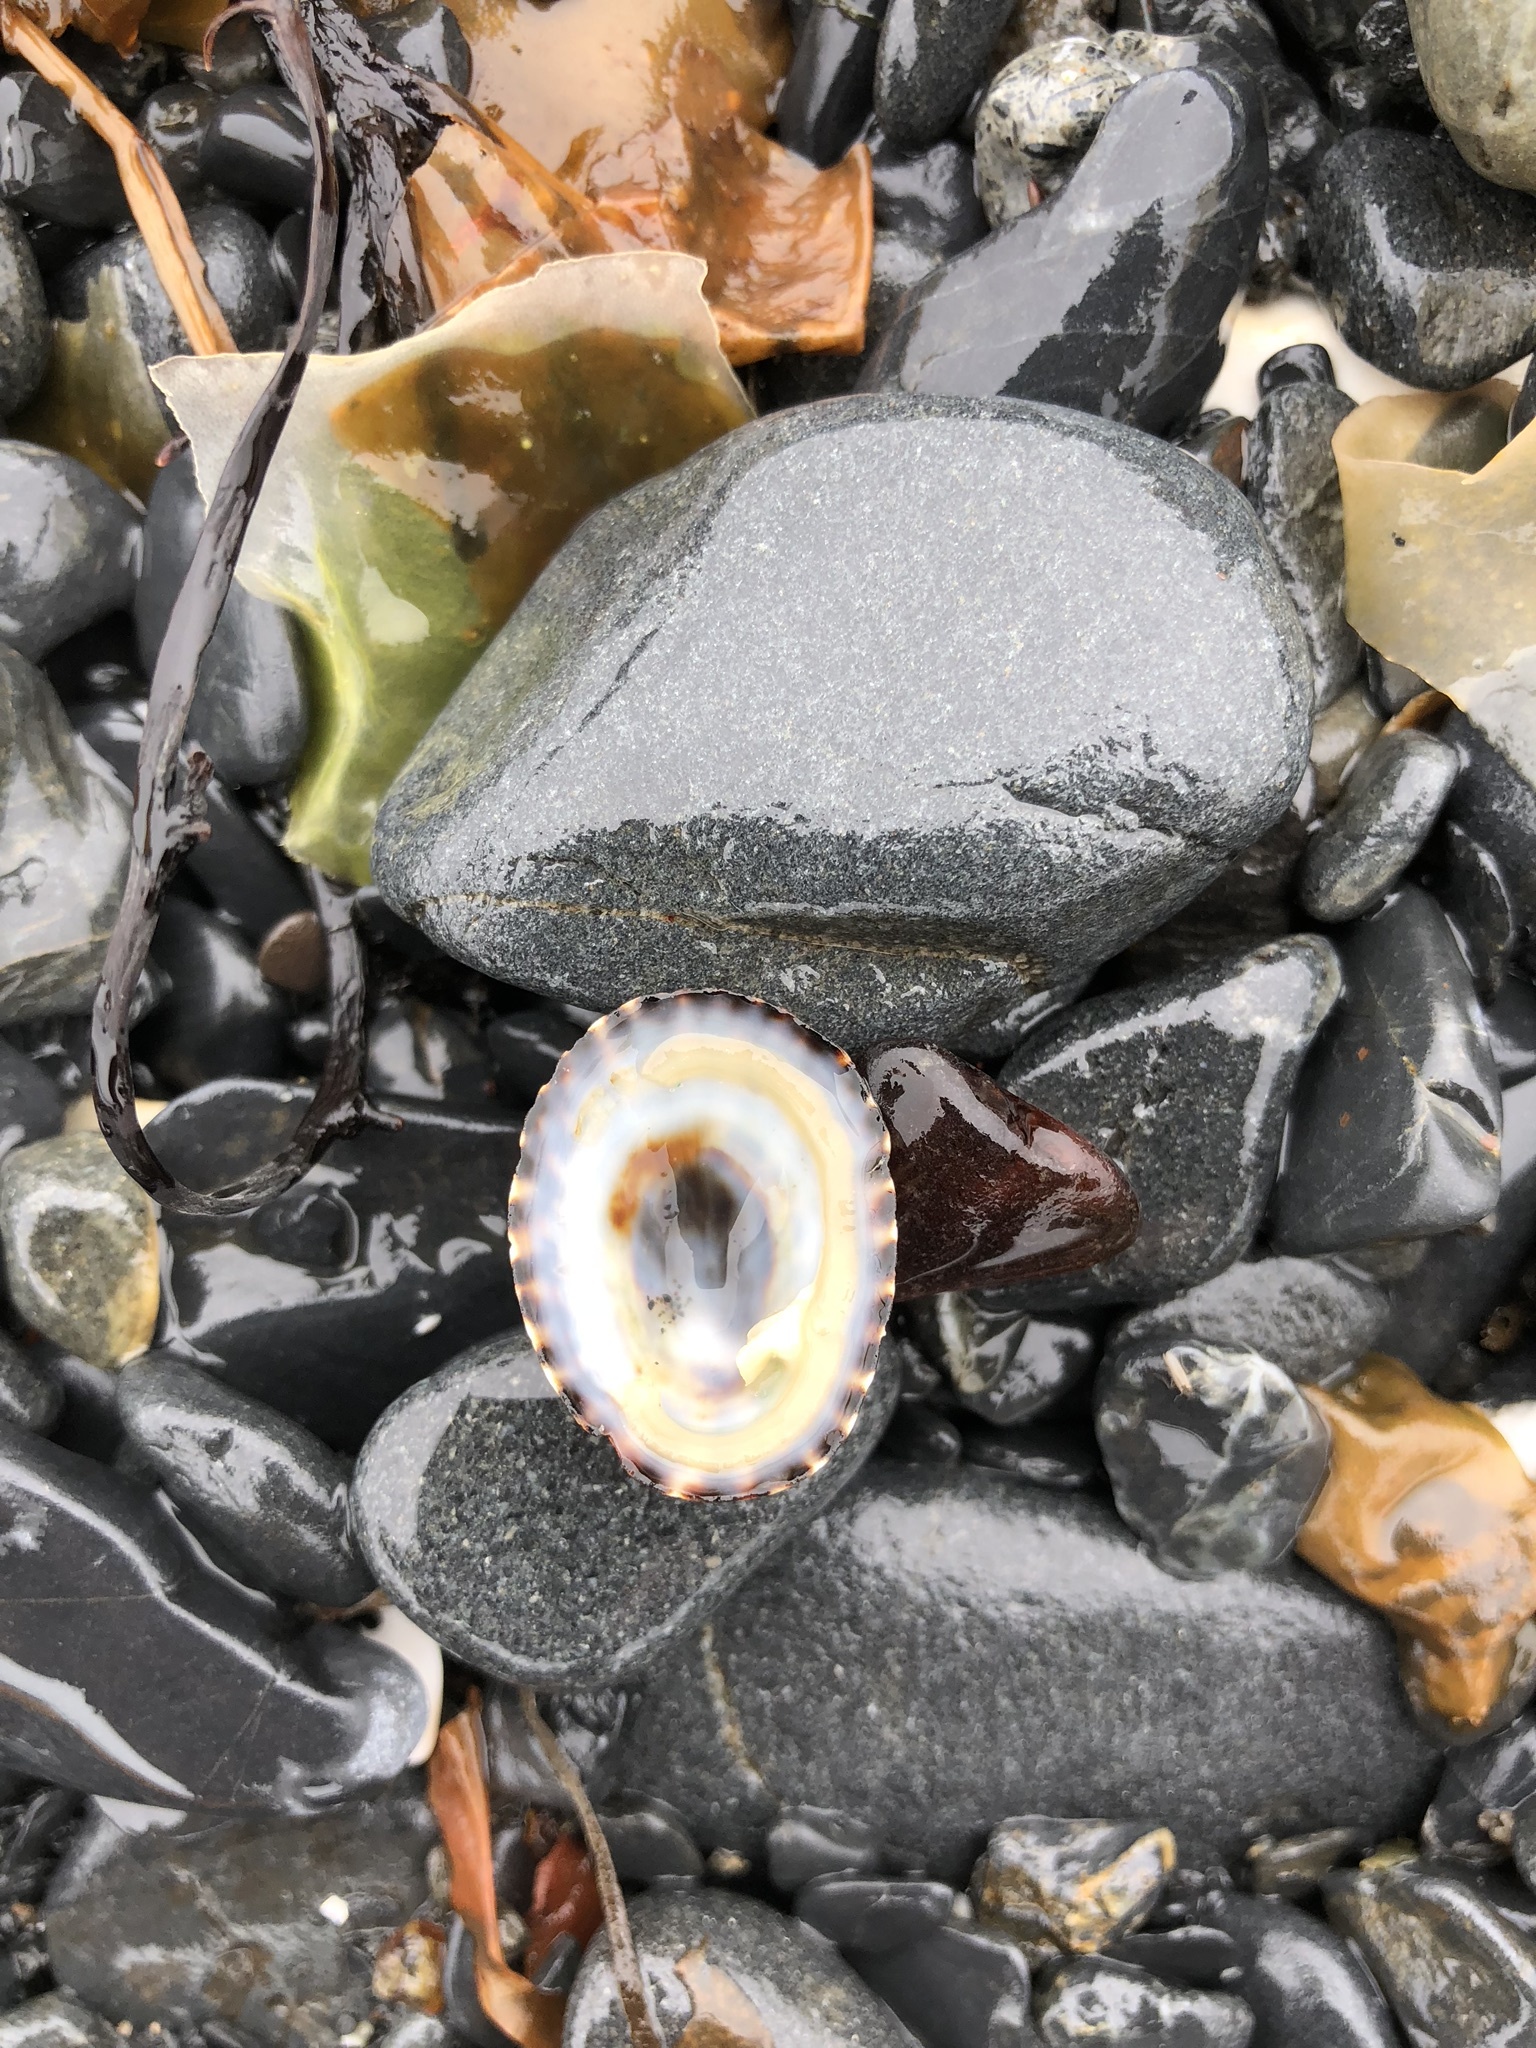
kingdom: Animalia
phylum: Mollusca
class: Gastropoda
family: Lottiidae
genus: Lottia
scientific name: Lottia pelta
